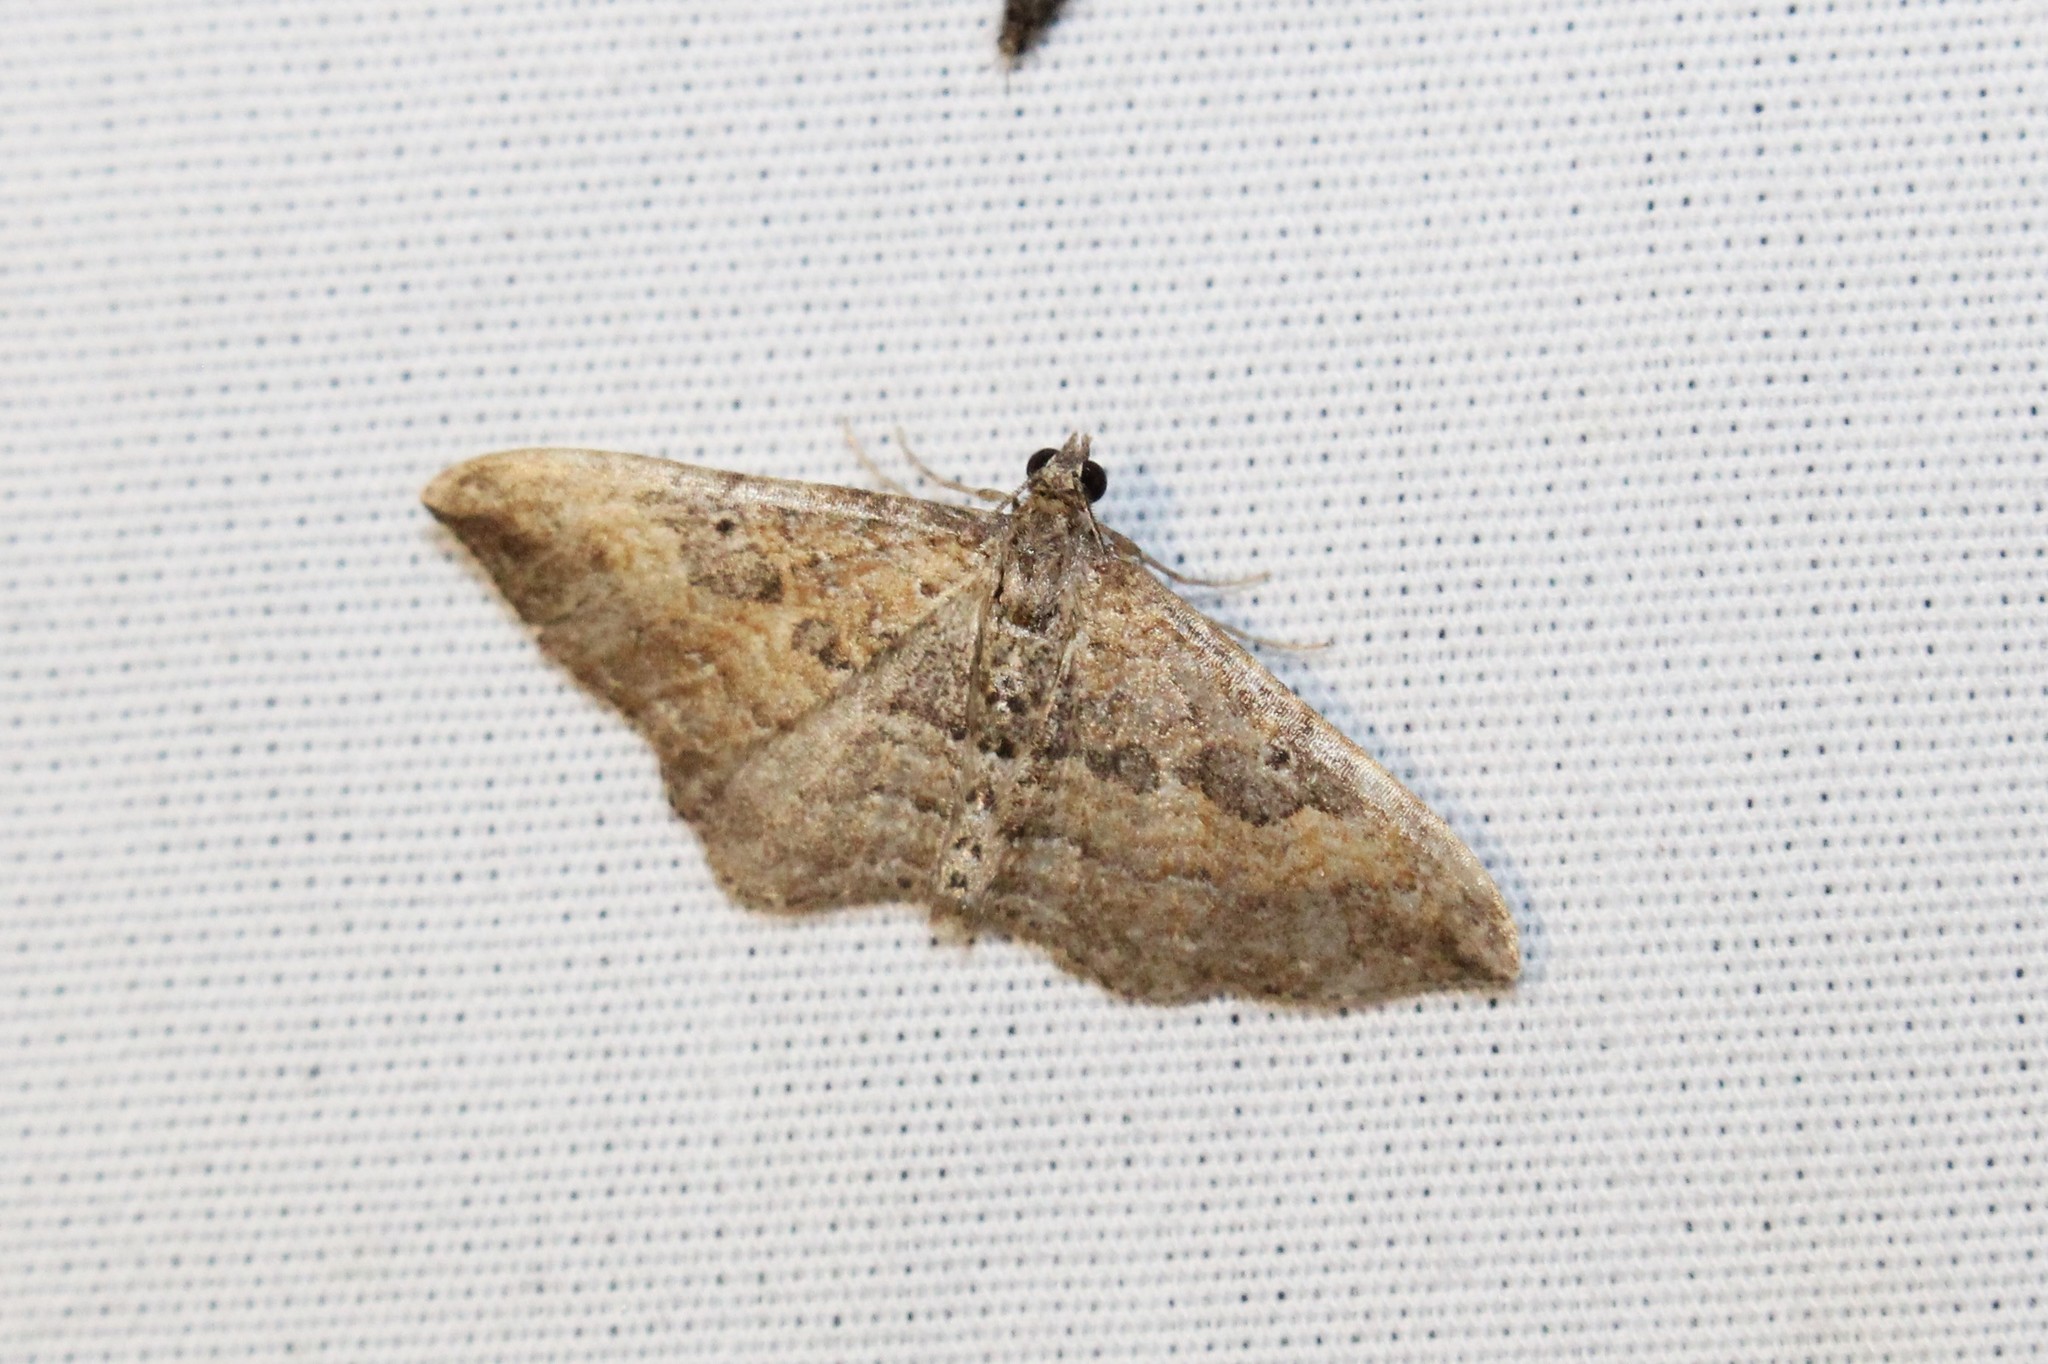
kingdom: Animalia
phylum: Arthropoda
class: Insecta
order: Lepidoptera
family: Geometridae
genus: Orthonama
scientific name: Orthonama obstipata
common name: The gem
